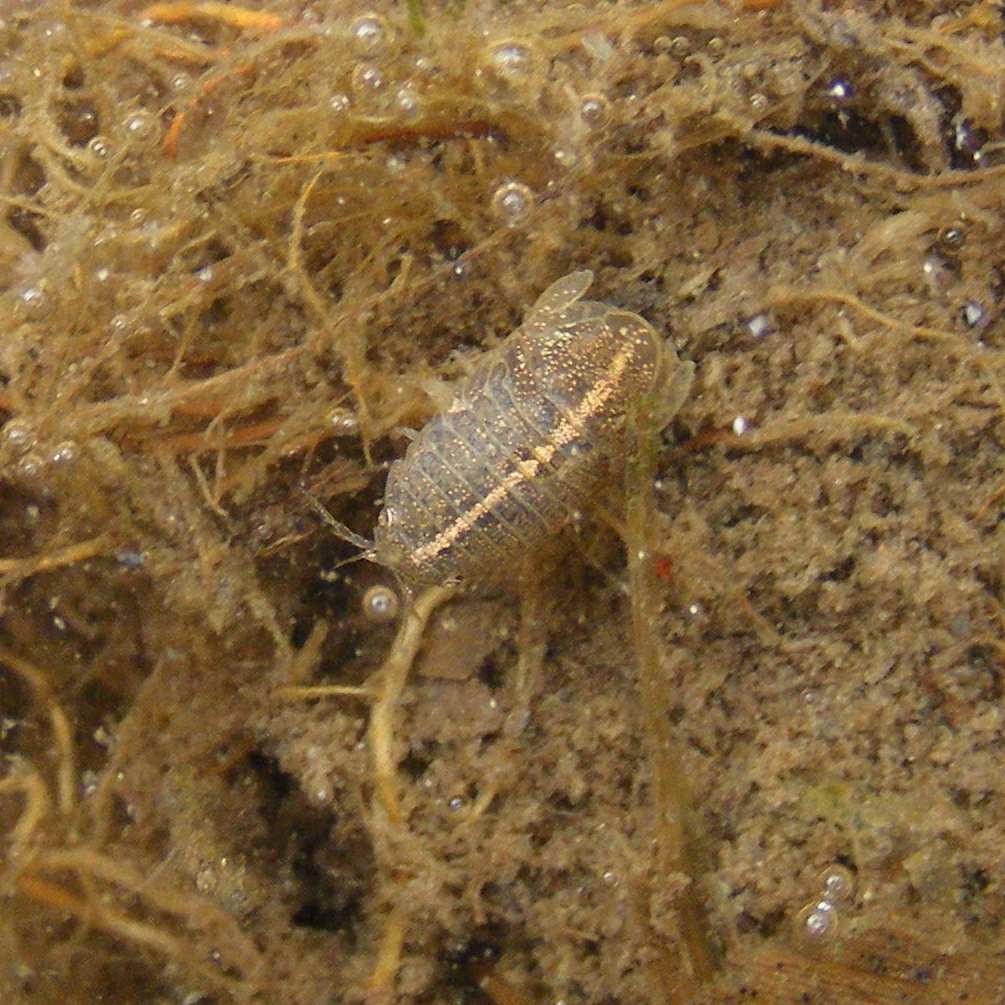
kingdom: Animalia
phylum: Arthropoda
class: Malacostraca
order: Isopoda
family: Sphaeromatidae
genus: Lekanesphaera
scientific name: Lekanesphaera
